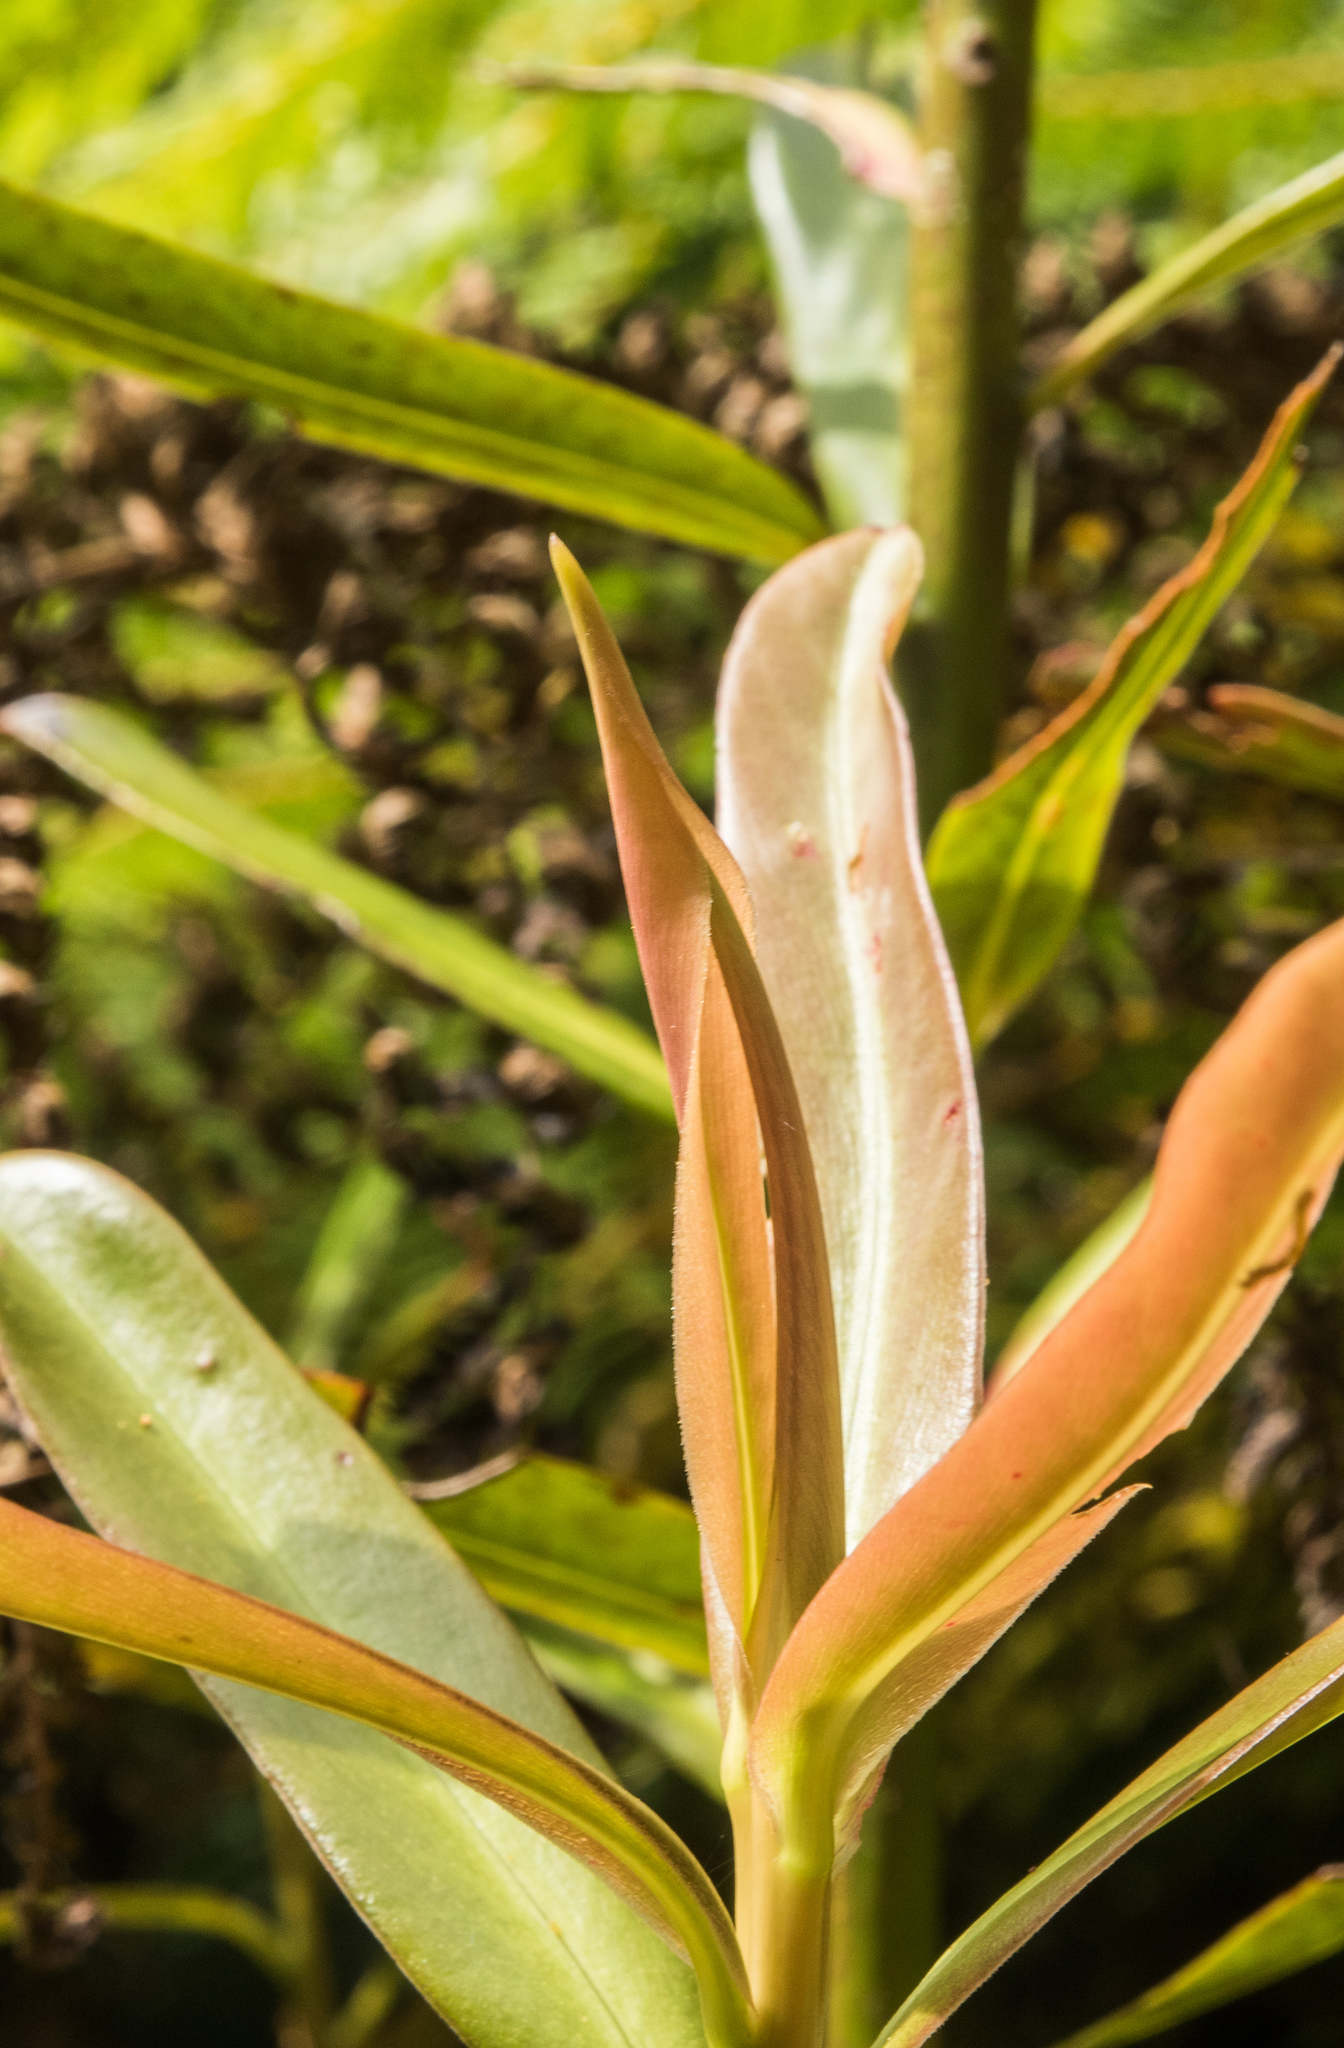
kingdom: Plantae
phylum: Tracheophyta
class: Magnoliopsida
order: Ericales
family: Primulaceae
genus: Myrsine
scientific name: Myrsine salicina
